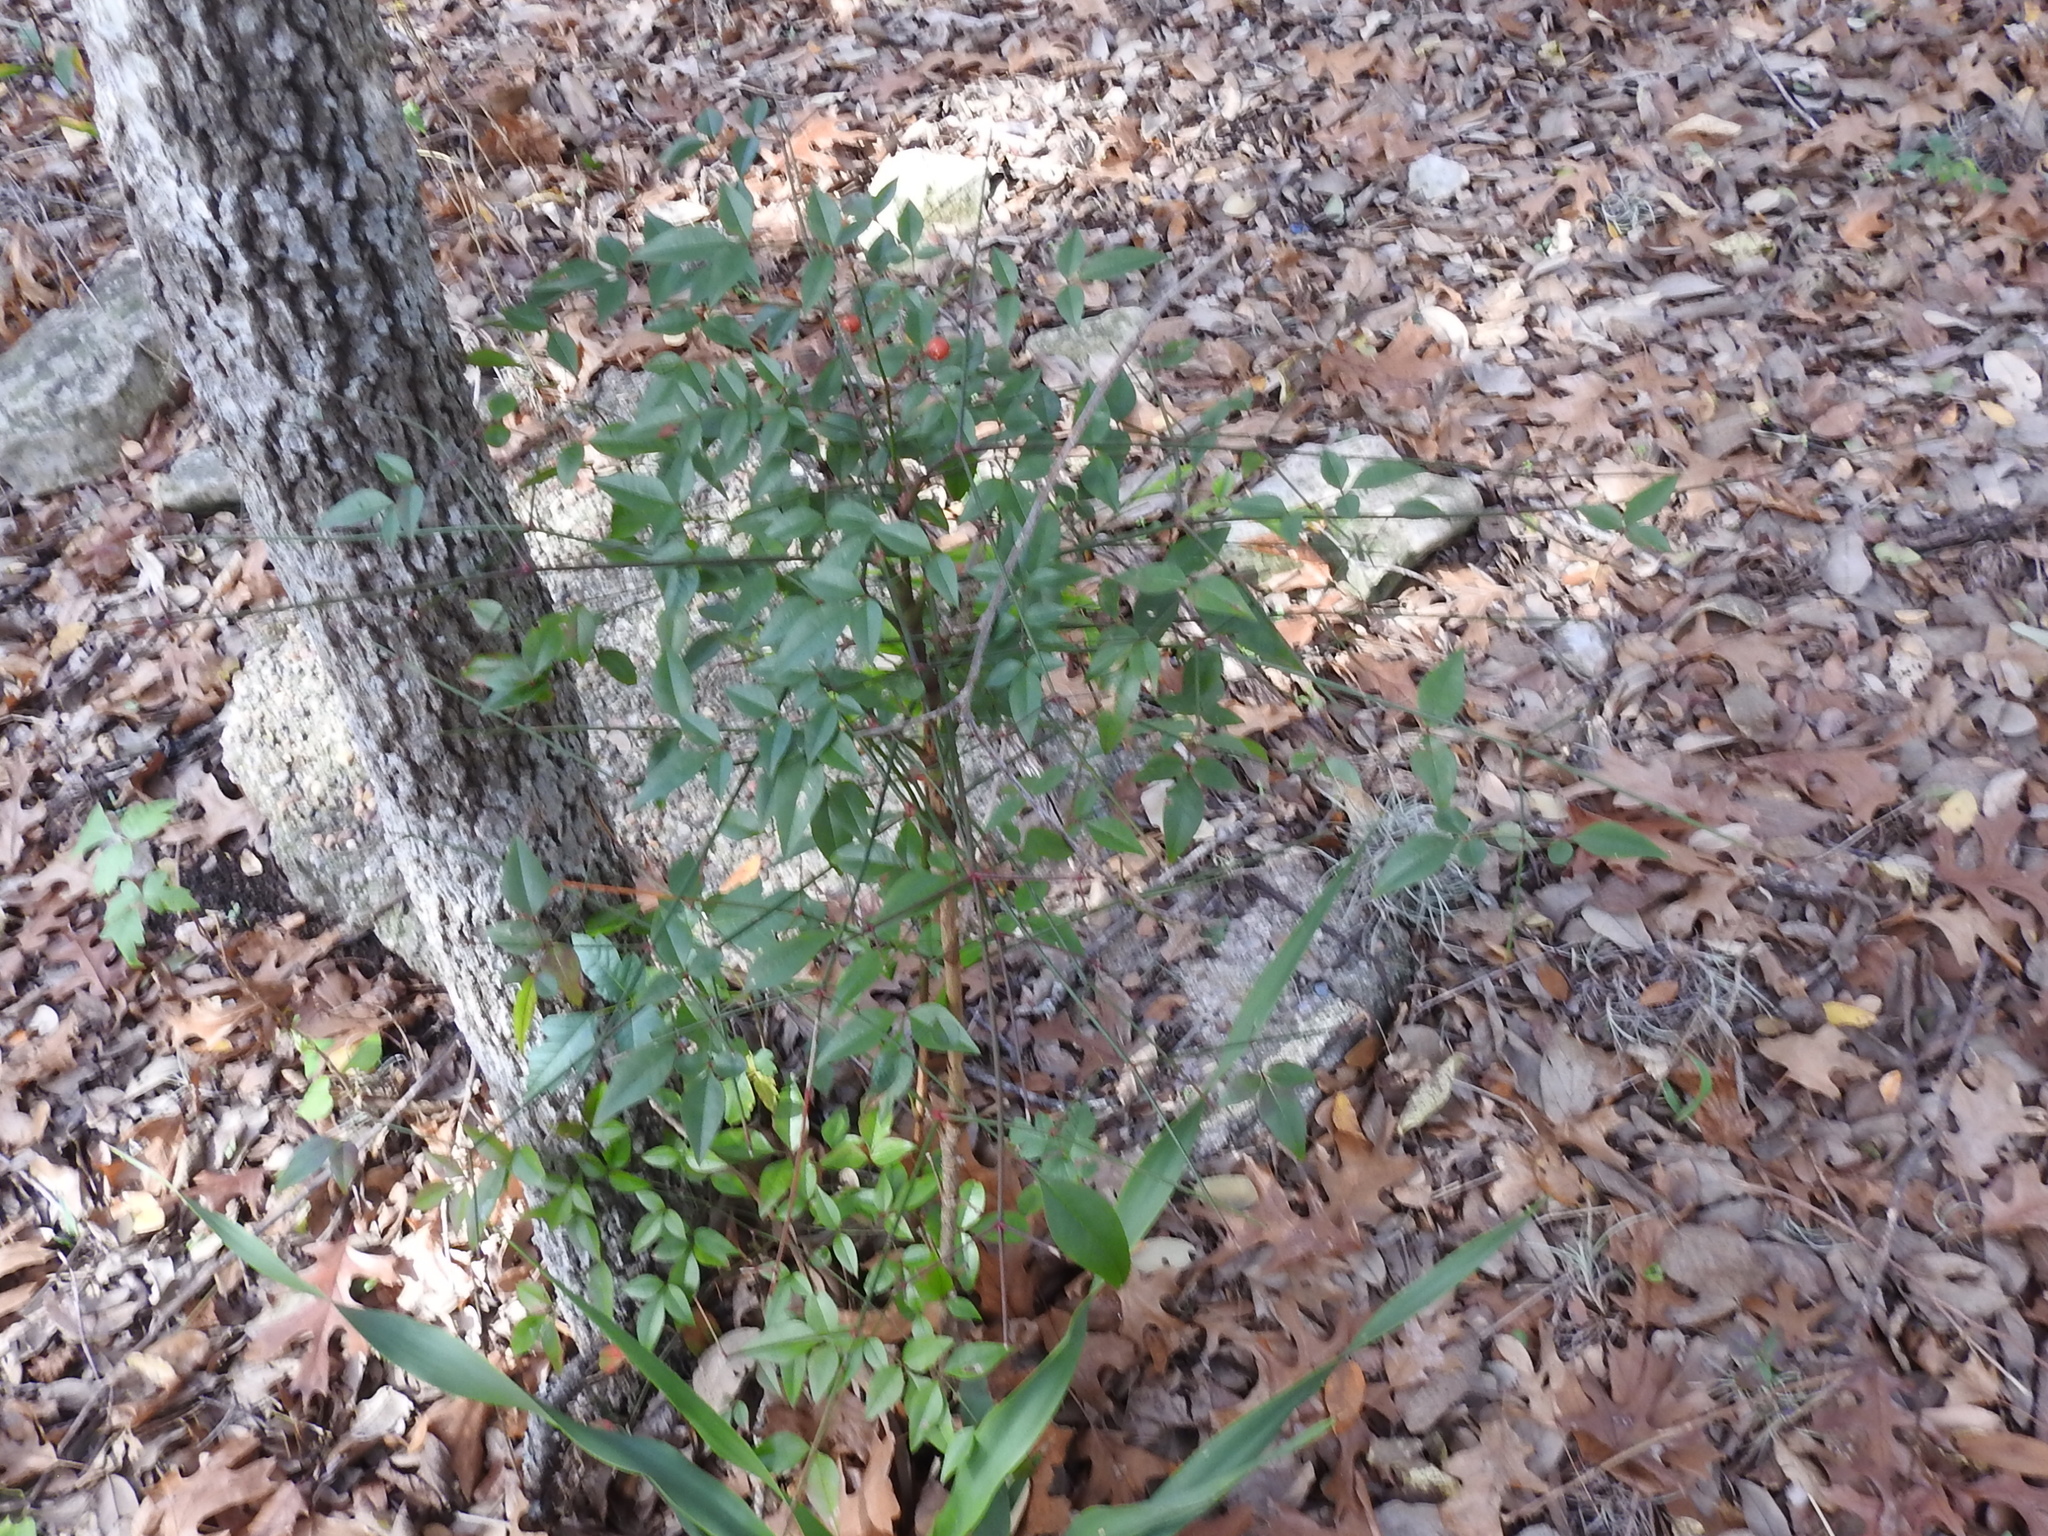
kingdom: Plantae
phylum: Tracheophyta
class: Magnoliopsida
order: Ranunculales
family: Berberidaceae
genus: Nandina
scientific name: Nandina domestica
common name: Sacred bamboo
